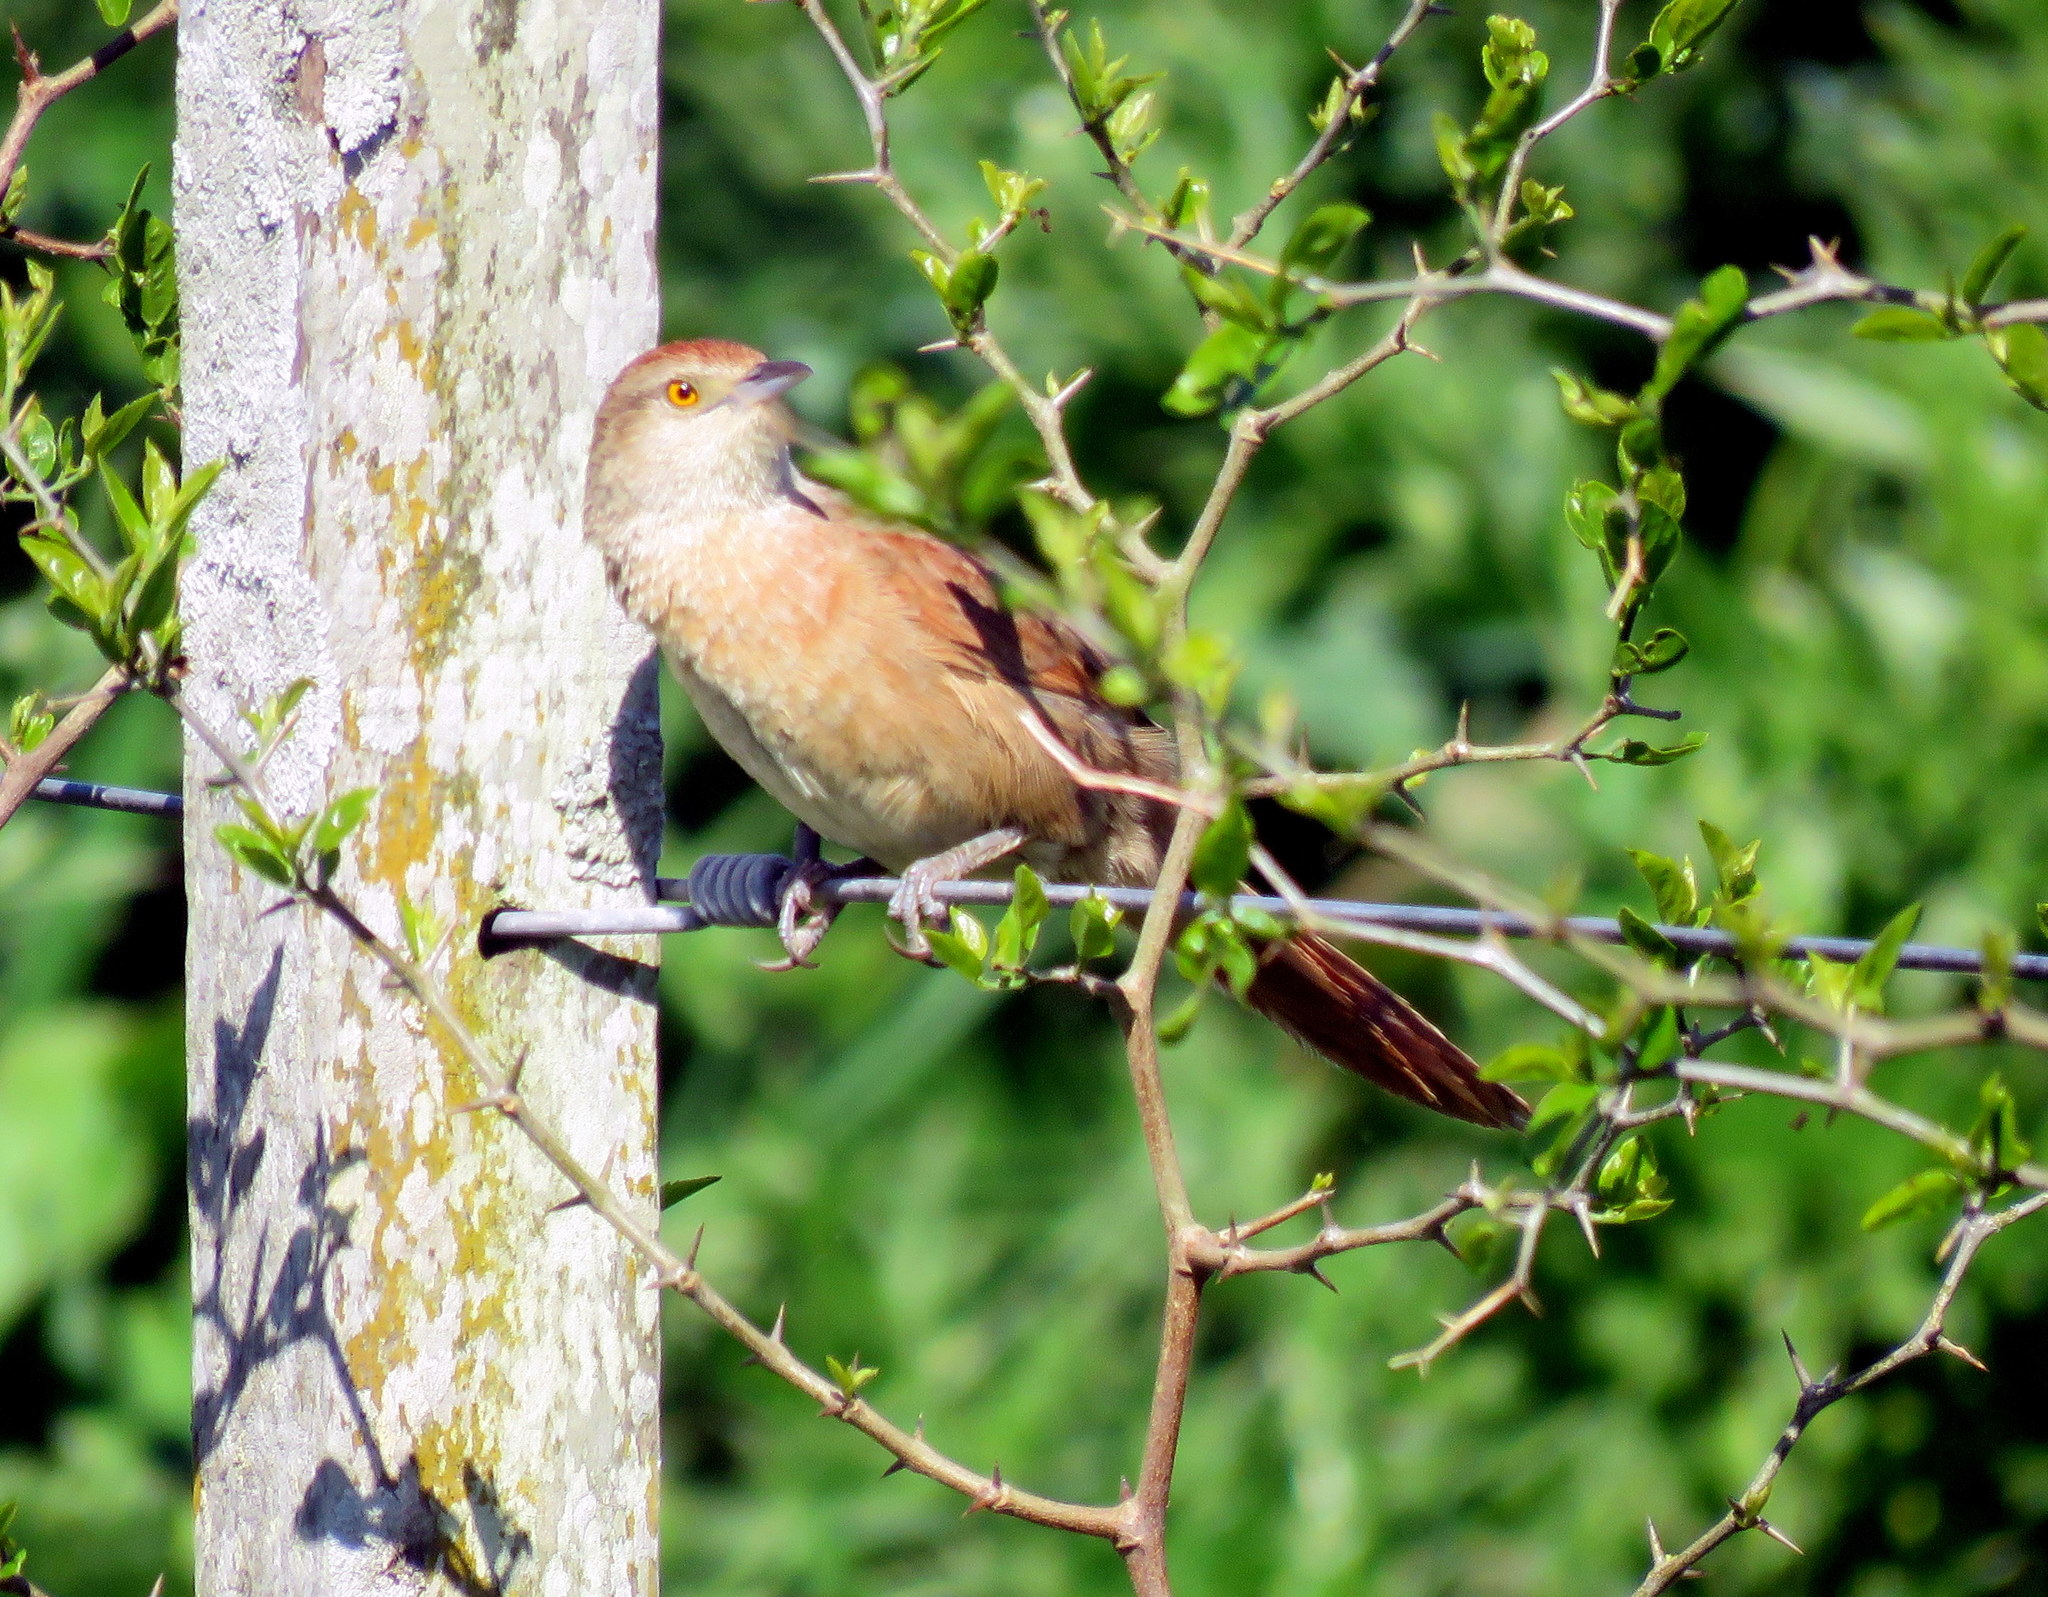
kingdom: Animalia
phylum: Chordata
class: Aves
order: Passeriformes
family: Furnariidae
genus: Phacellodomus
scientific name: Phacellodomus striaticollis
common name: Freckle-breasted thornbird
